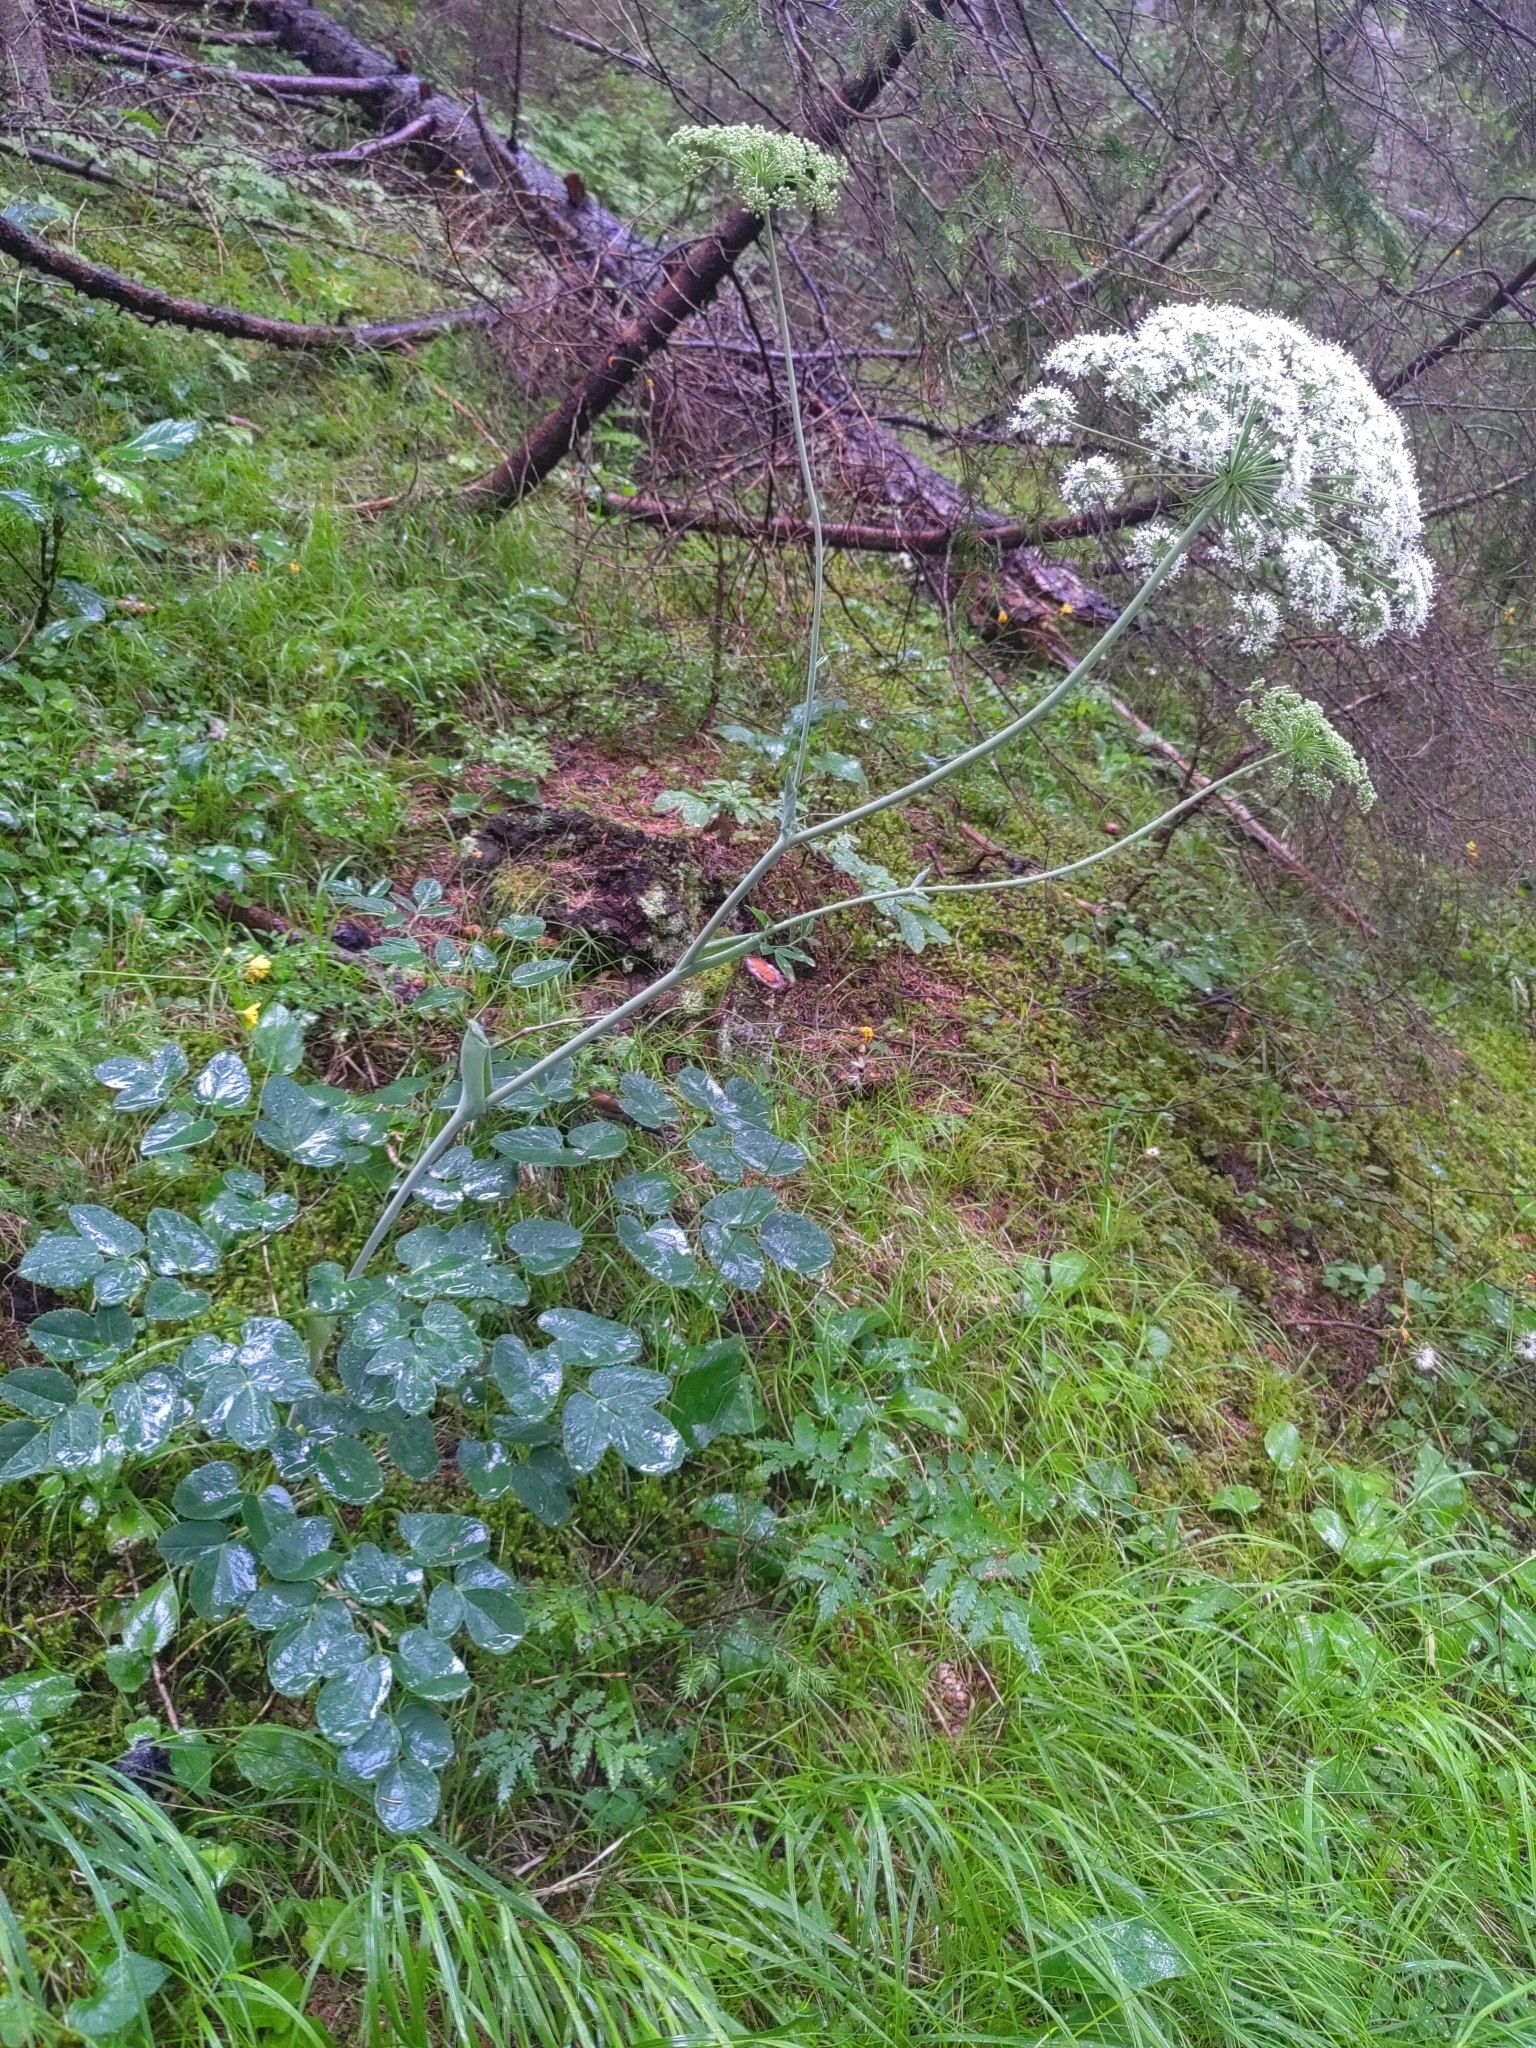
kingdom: Plantae
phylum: Tracheophyta
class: Magnoliopsida
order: Apiales
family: Apiaceae
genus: Laserpitium
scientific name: Laserpitium latifolium
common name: Broadleaf sermountain
